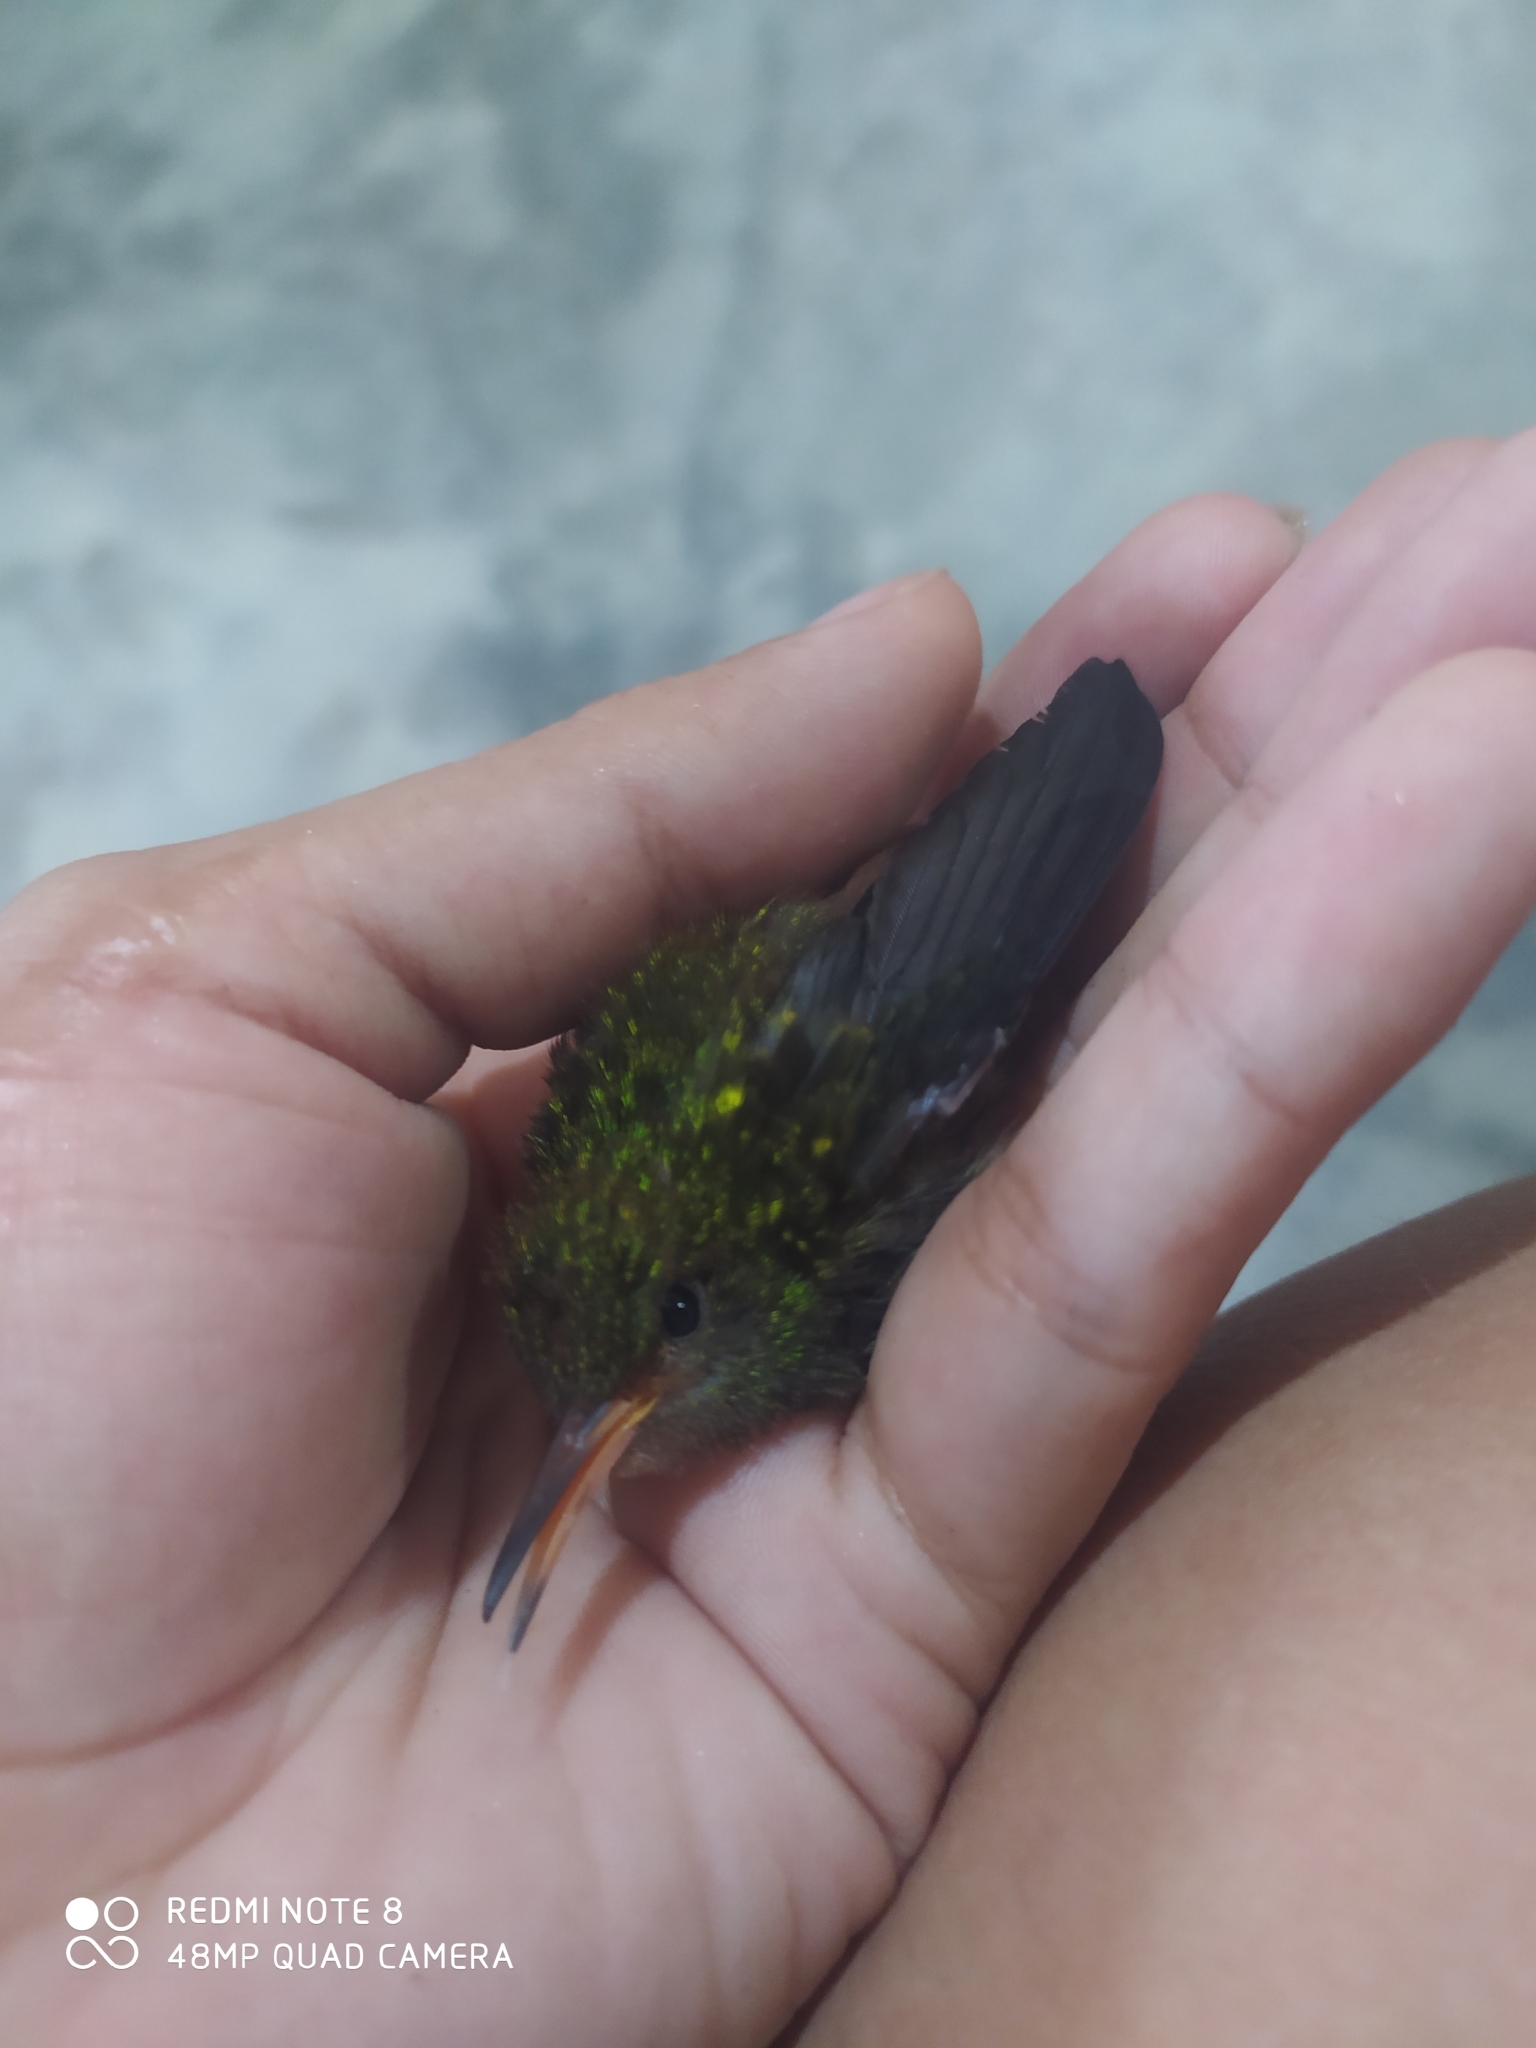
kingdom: Animalia
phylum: Chordata
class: Aves
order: Apodiformes
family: Trochilidae
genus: Amazilia
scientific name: Amazilia tzacatl
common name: Rufous-tailed hummingbird
